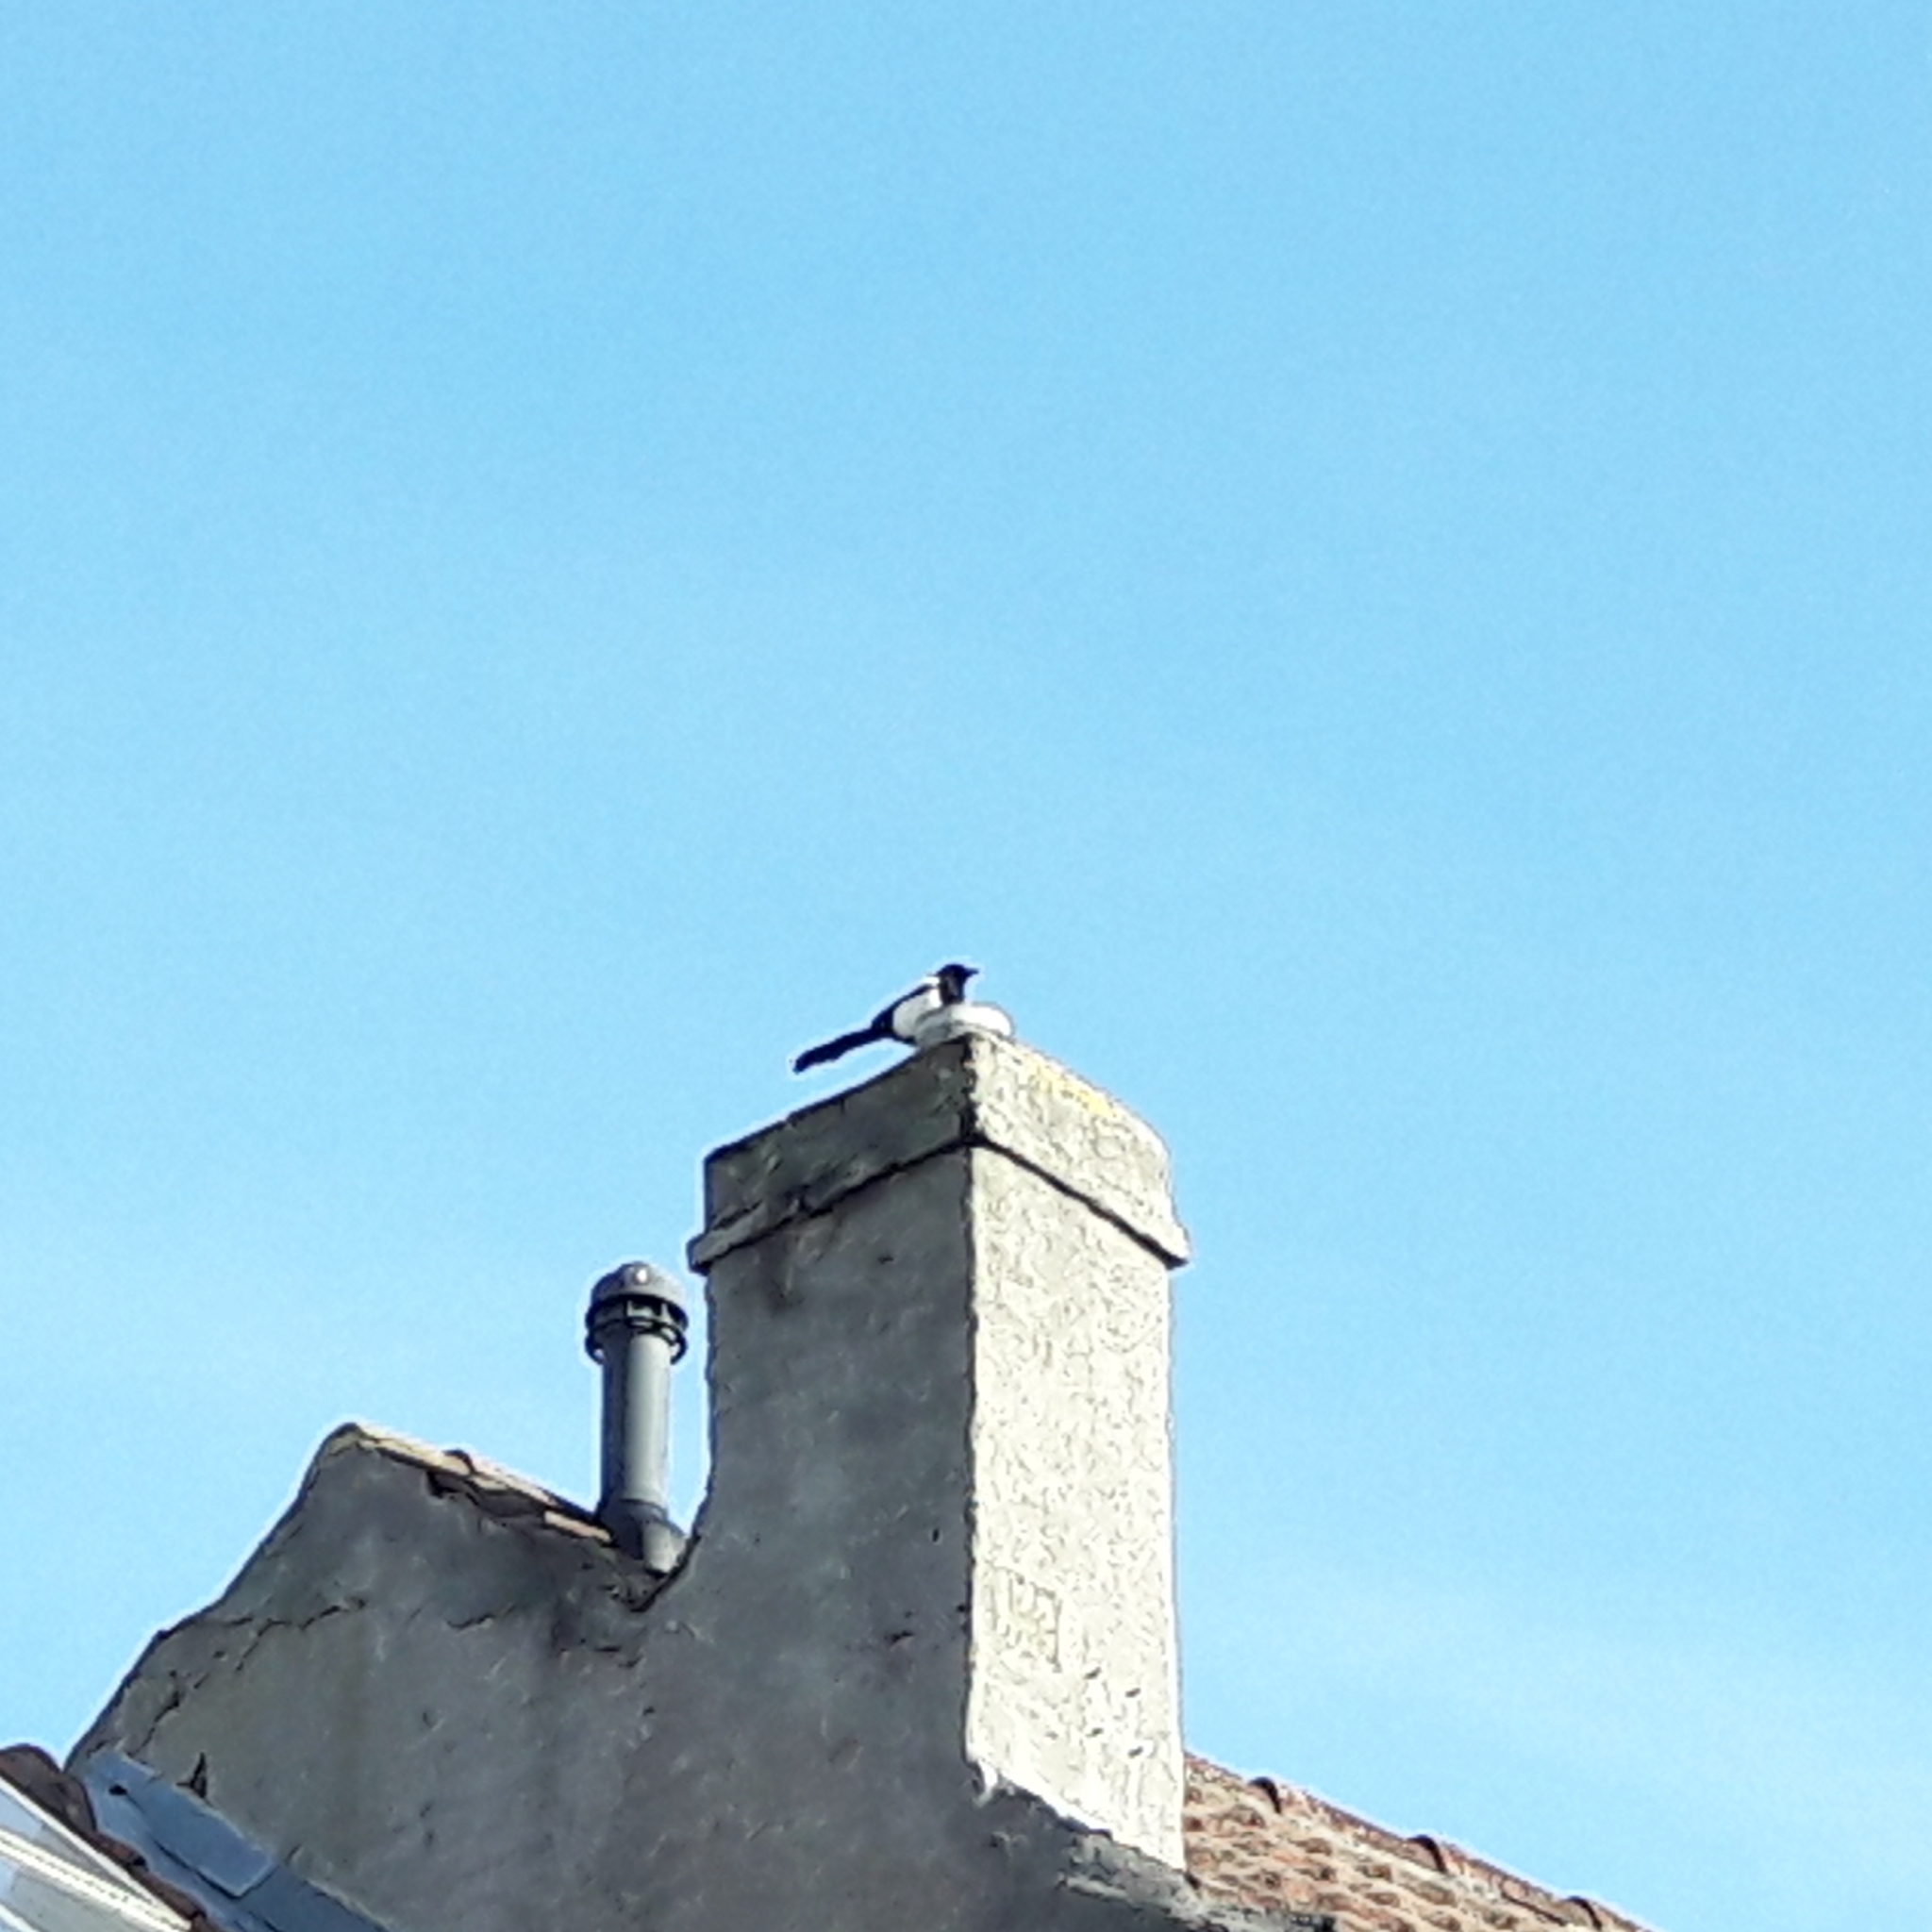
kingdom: Animalia
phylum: Chordata
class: Aves
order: Passeriformes
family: Corvidae
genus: Pica
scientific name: Pica pica
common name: Eurasian magpie
